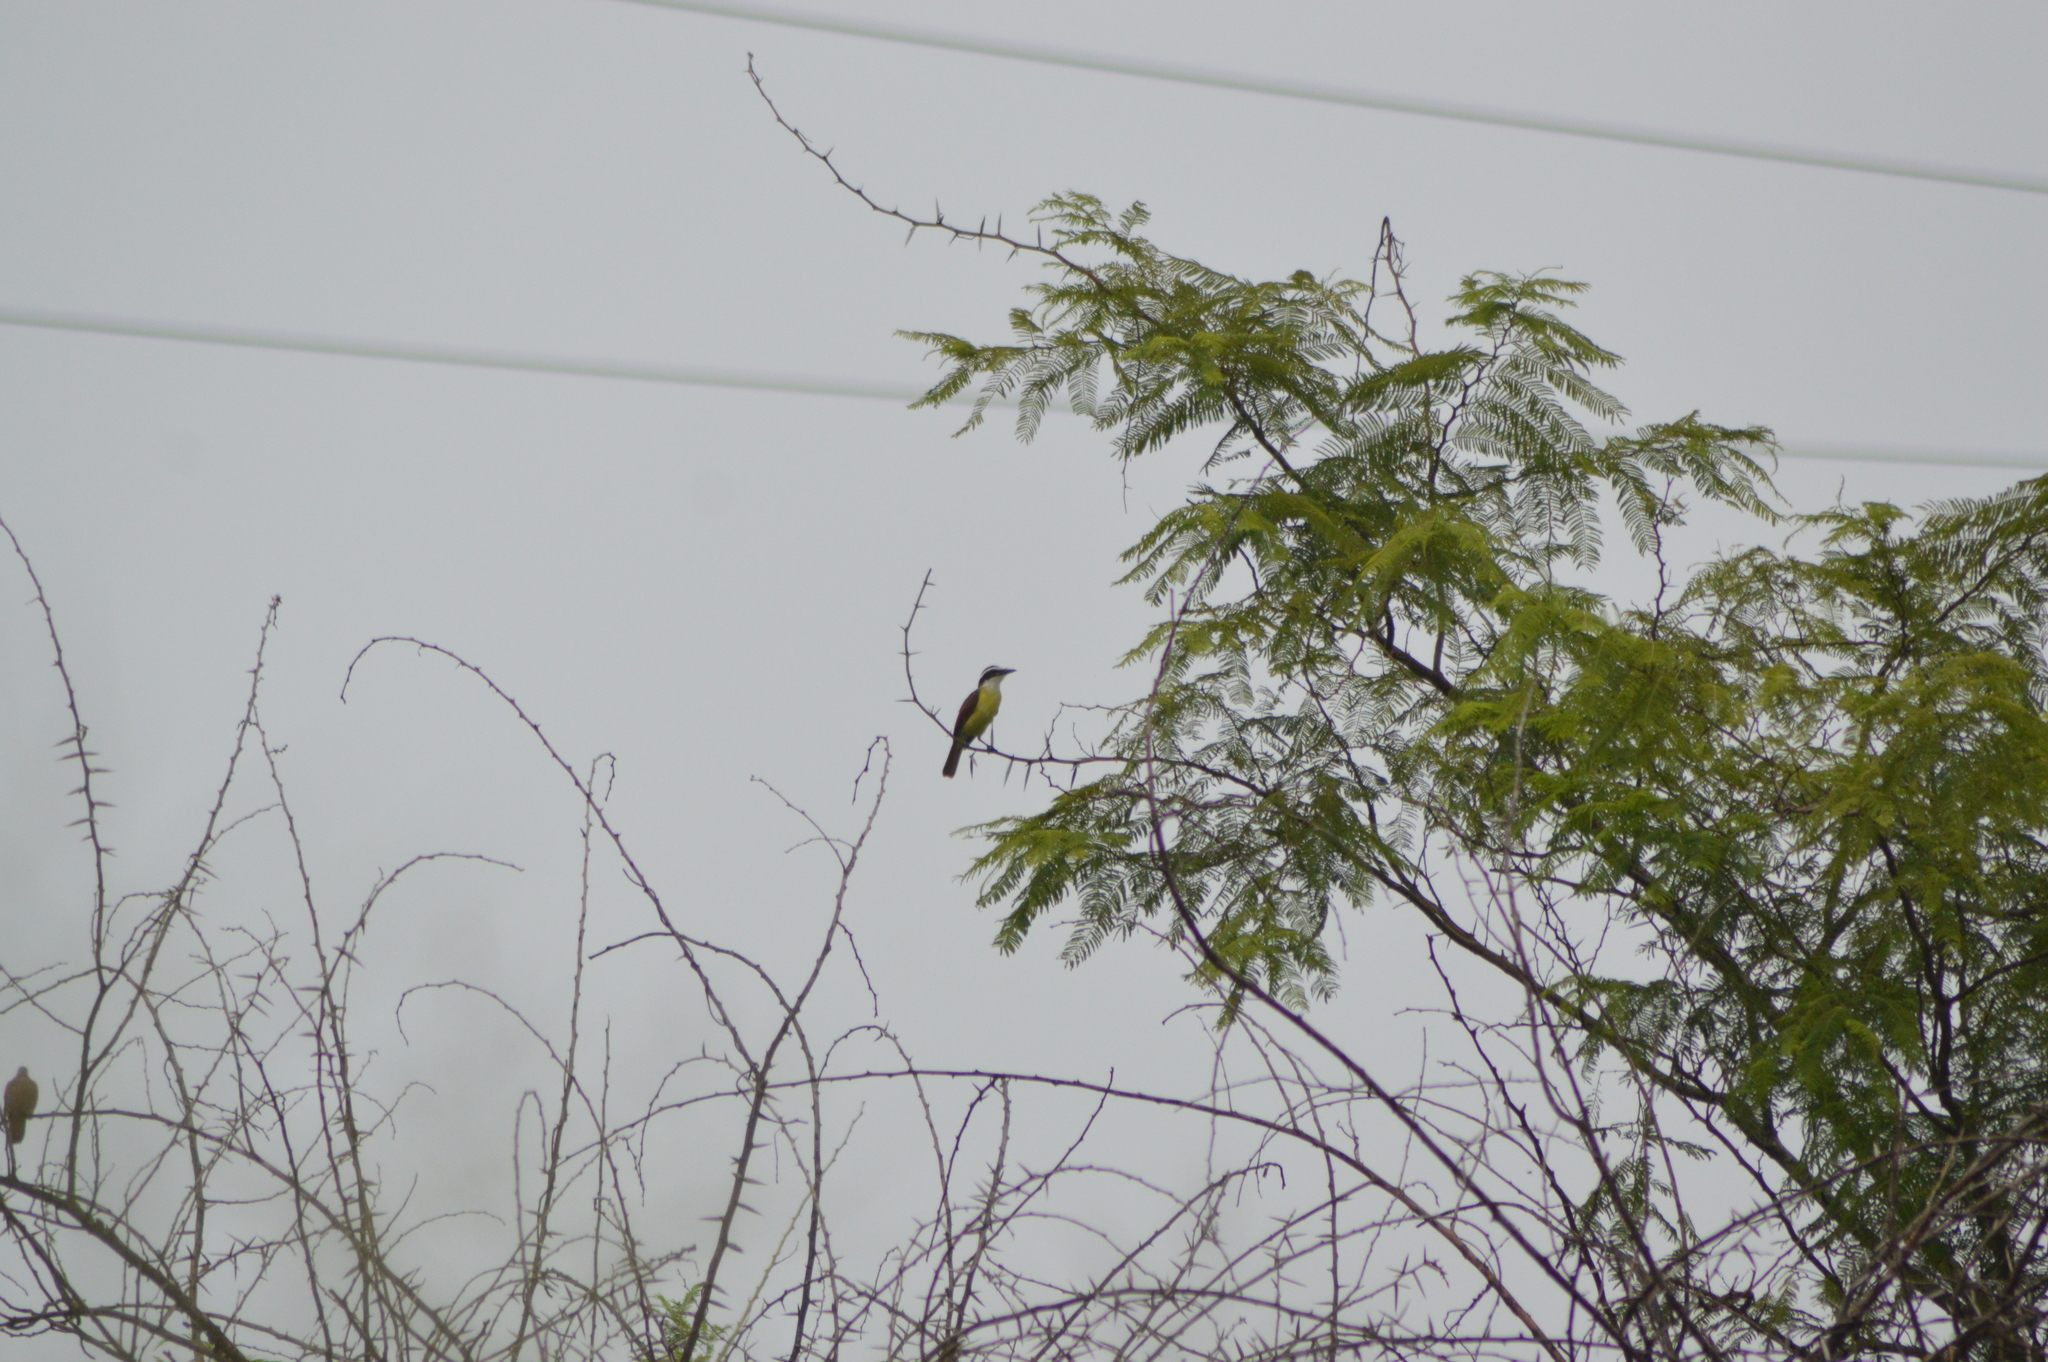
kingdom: Animalia
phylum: Chordata
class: Aves
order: Passeriformes
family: Tyrannidae
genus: Pitangus
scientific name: Pitangus sulphuratus
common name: Great kiskadee
